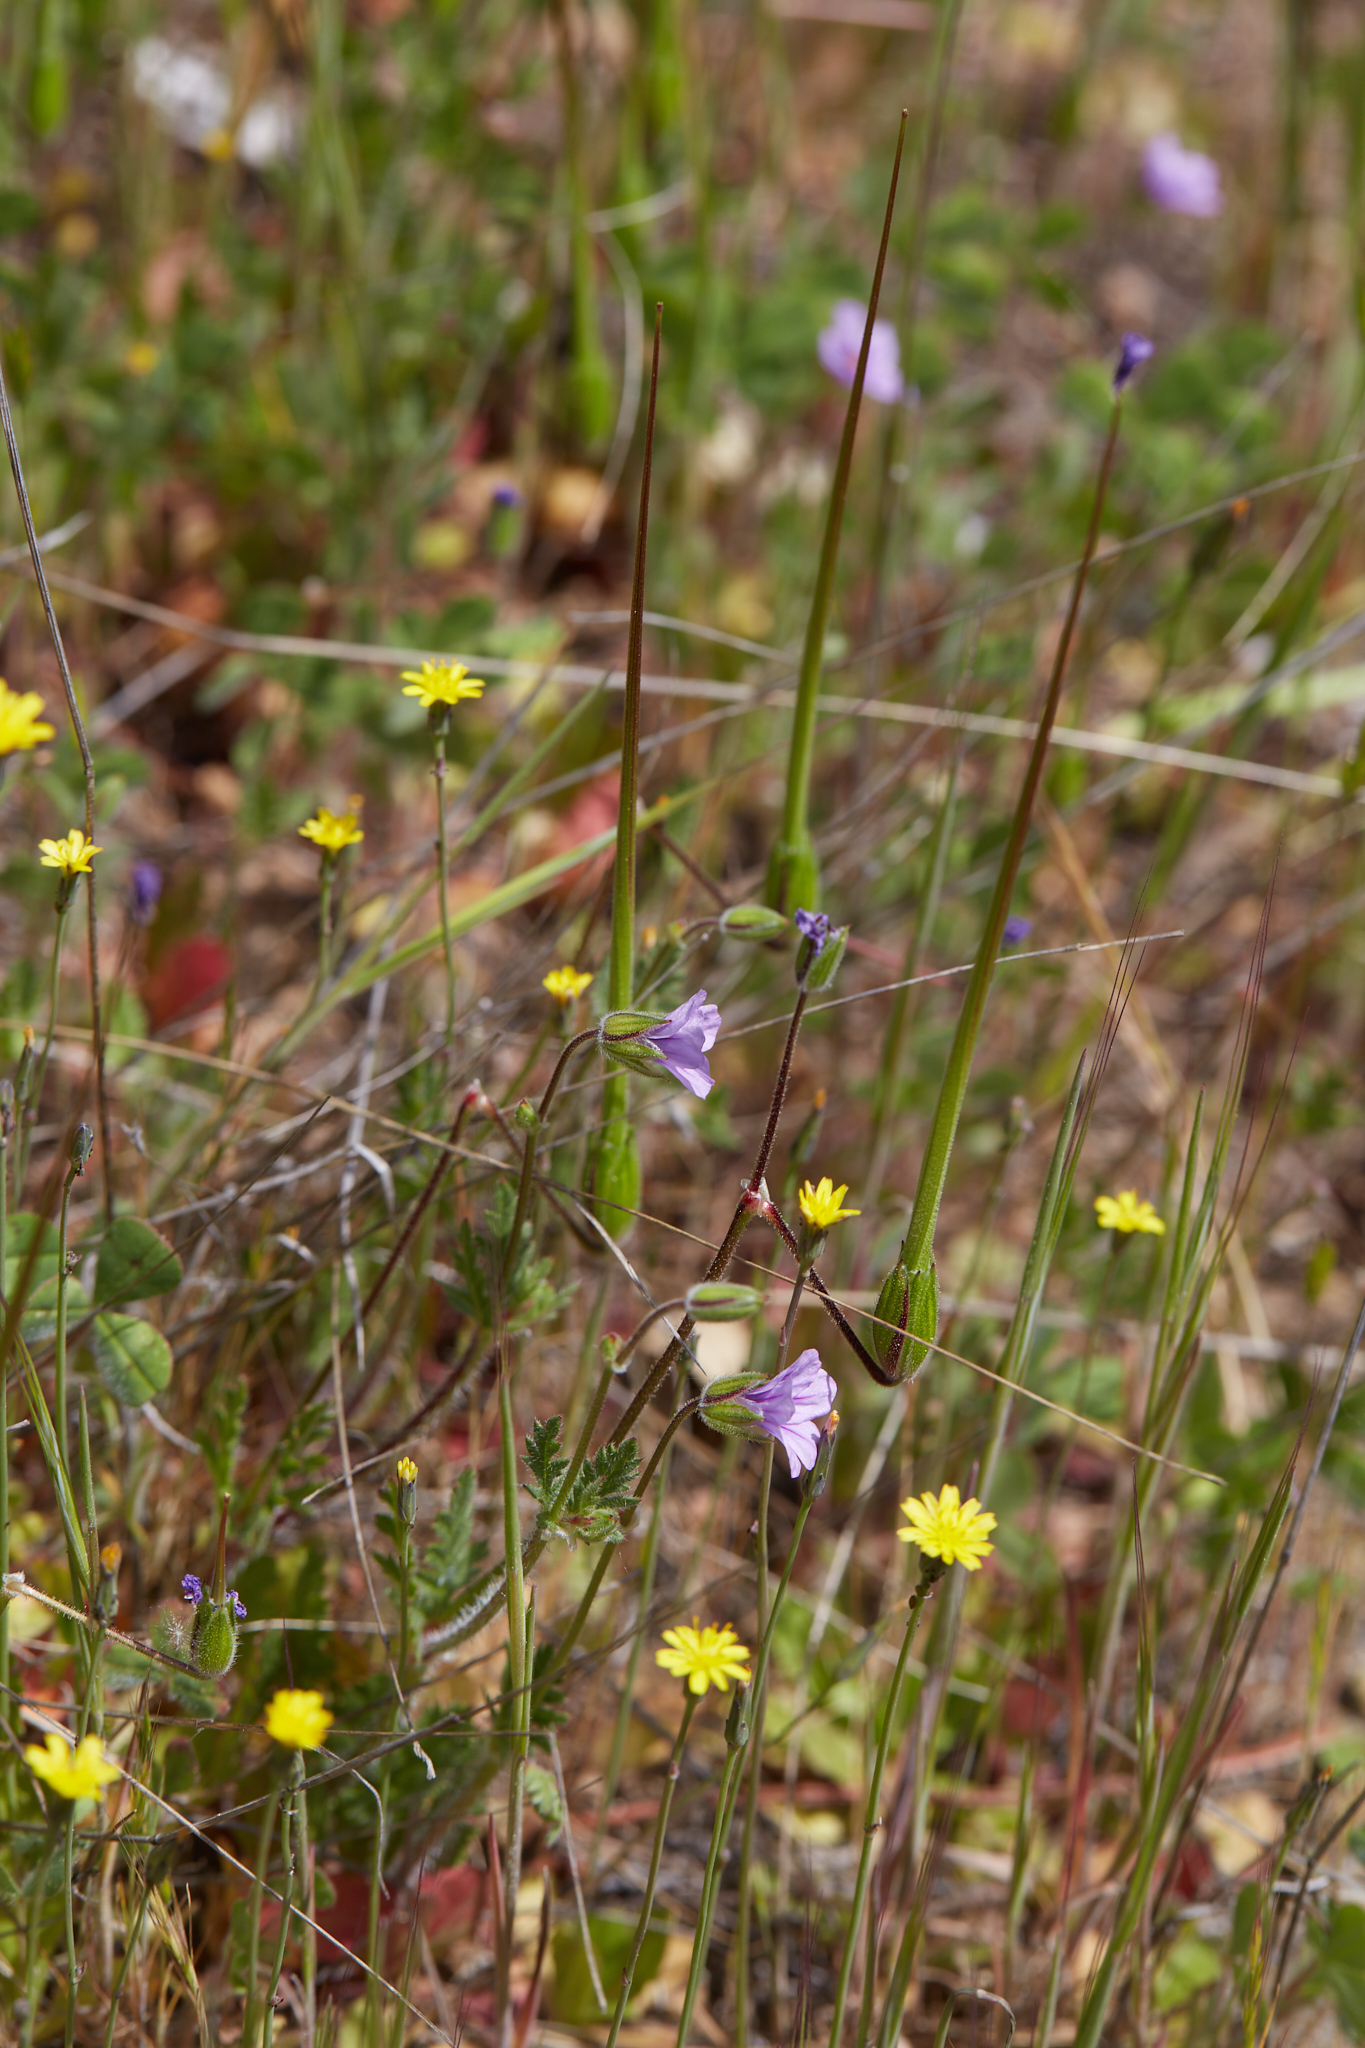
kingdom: Plantae
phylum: Tracheophyta
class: Magnoliopsida
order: Geraniales
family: Geraniaceae
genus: Erodium
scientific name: Erodium botrys
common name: Mediterranean stork's-bill
